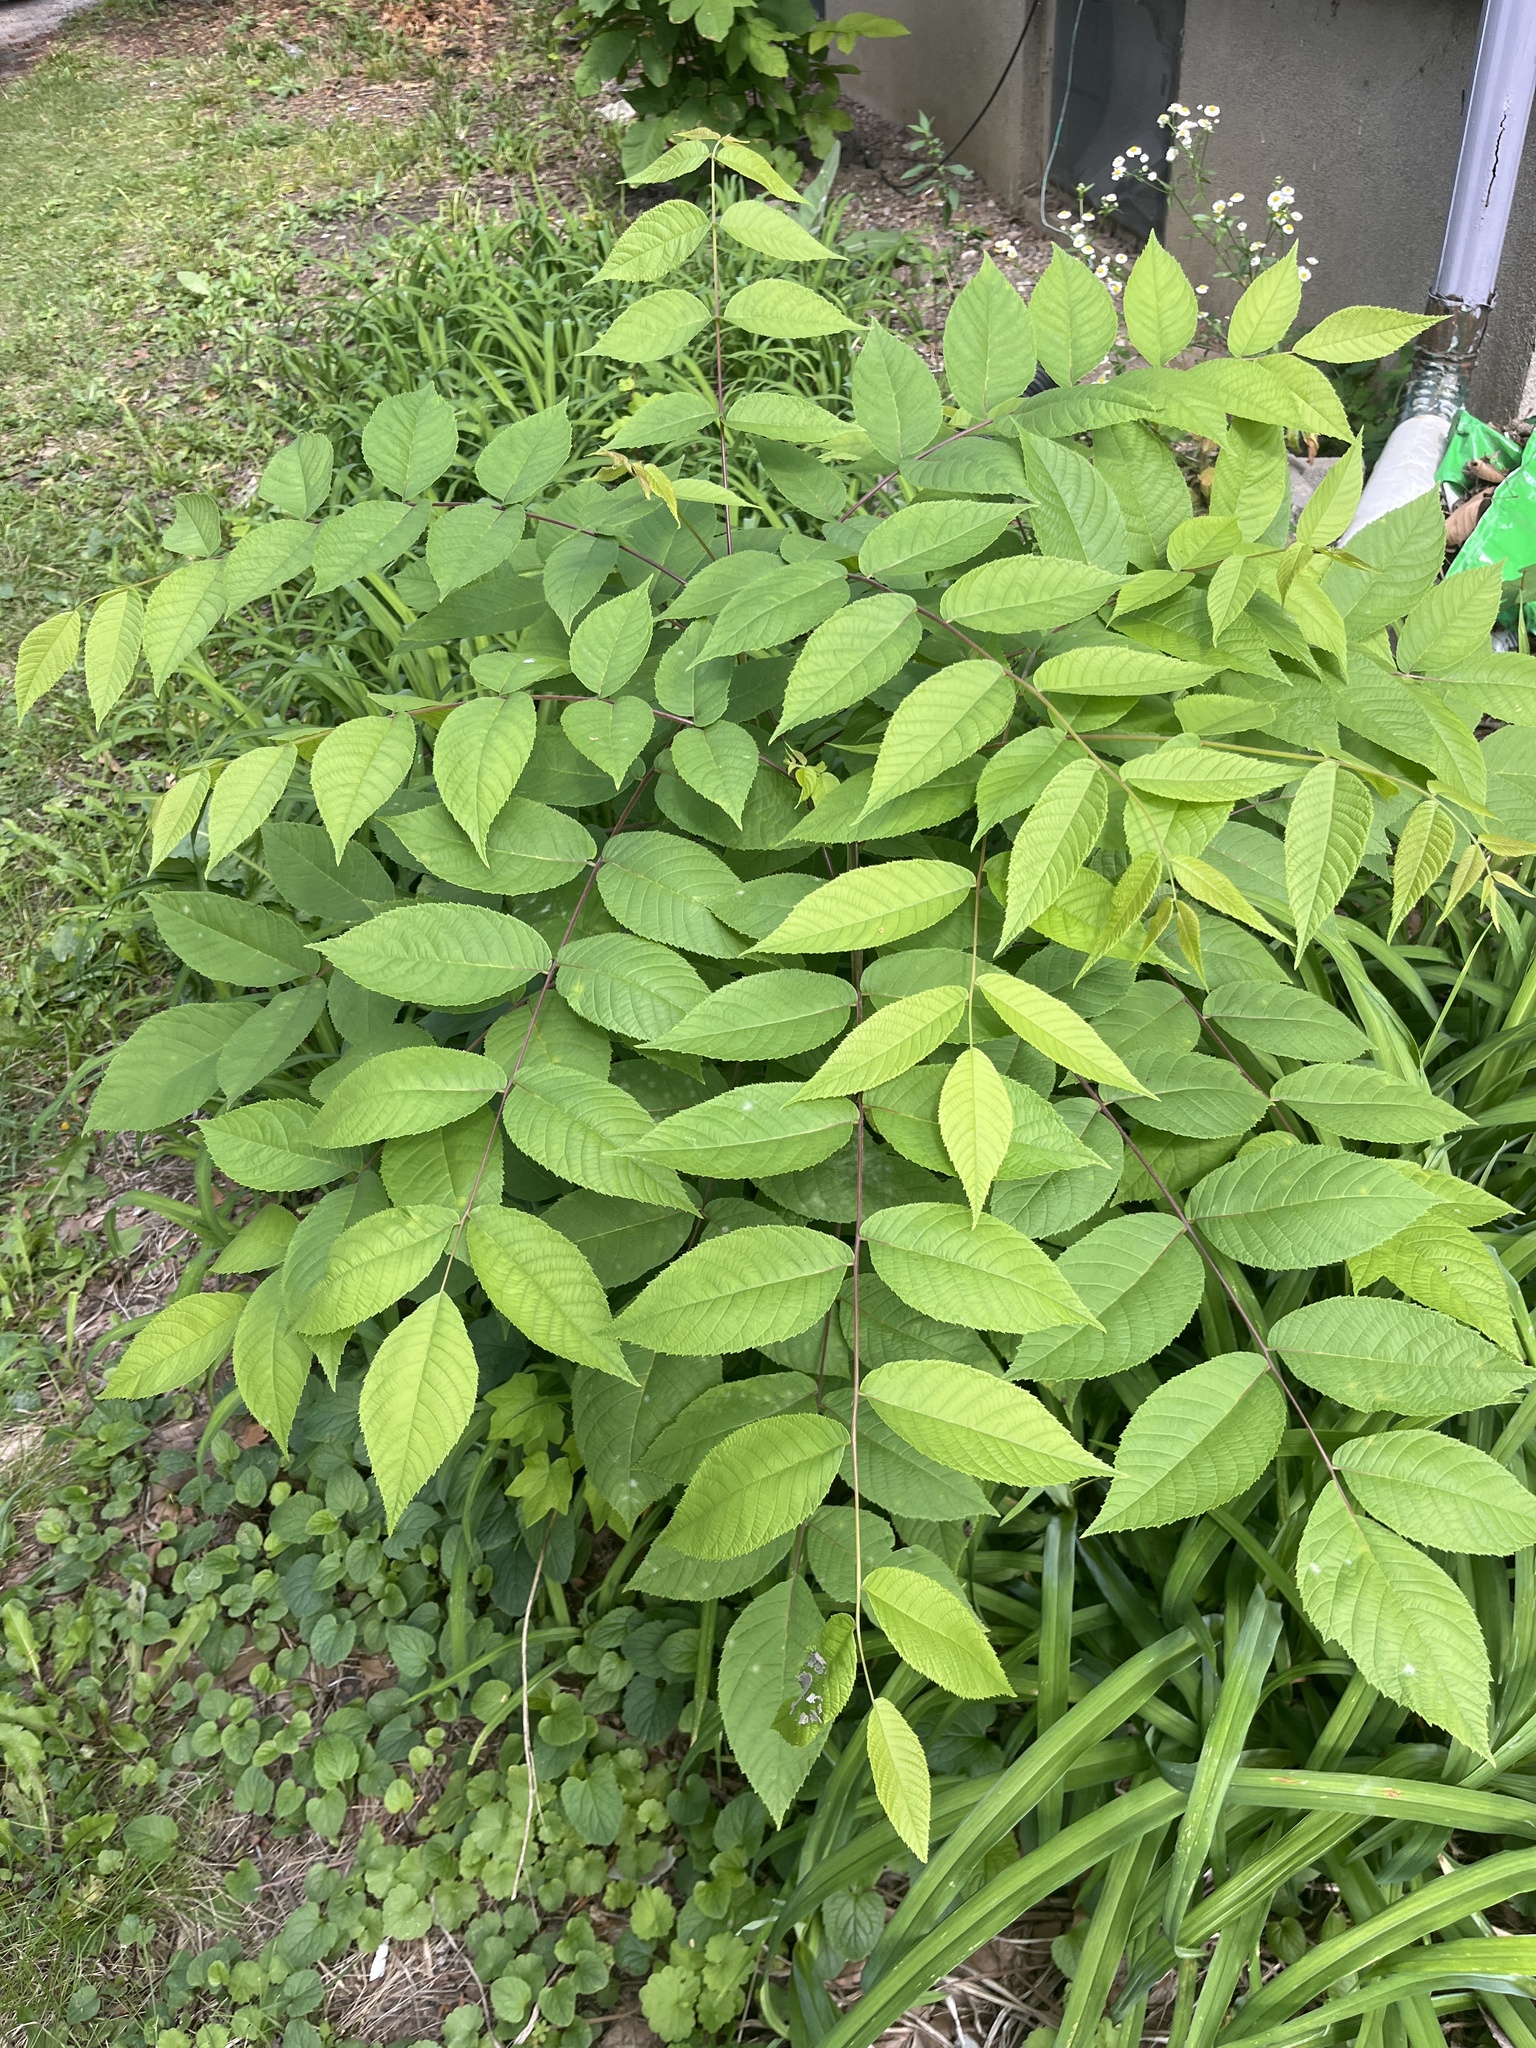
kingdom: Plantae
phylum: Tracheophyta
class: Magnoliopsida
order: Fagales
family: Juglandaceae
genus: Juglans
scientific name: Juglans nigra
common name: Black walnut
